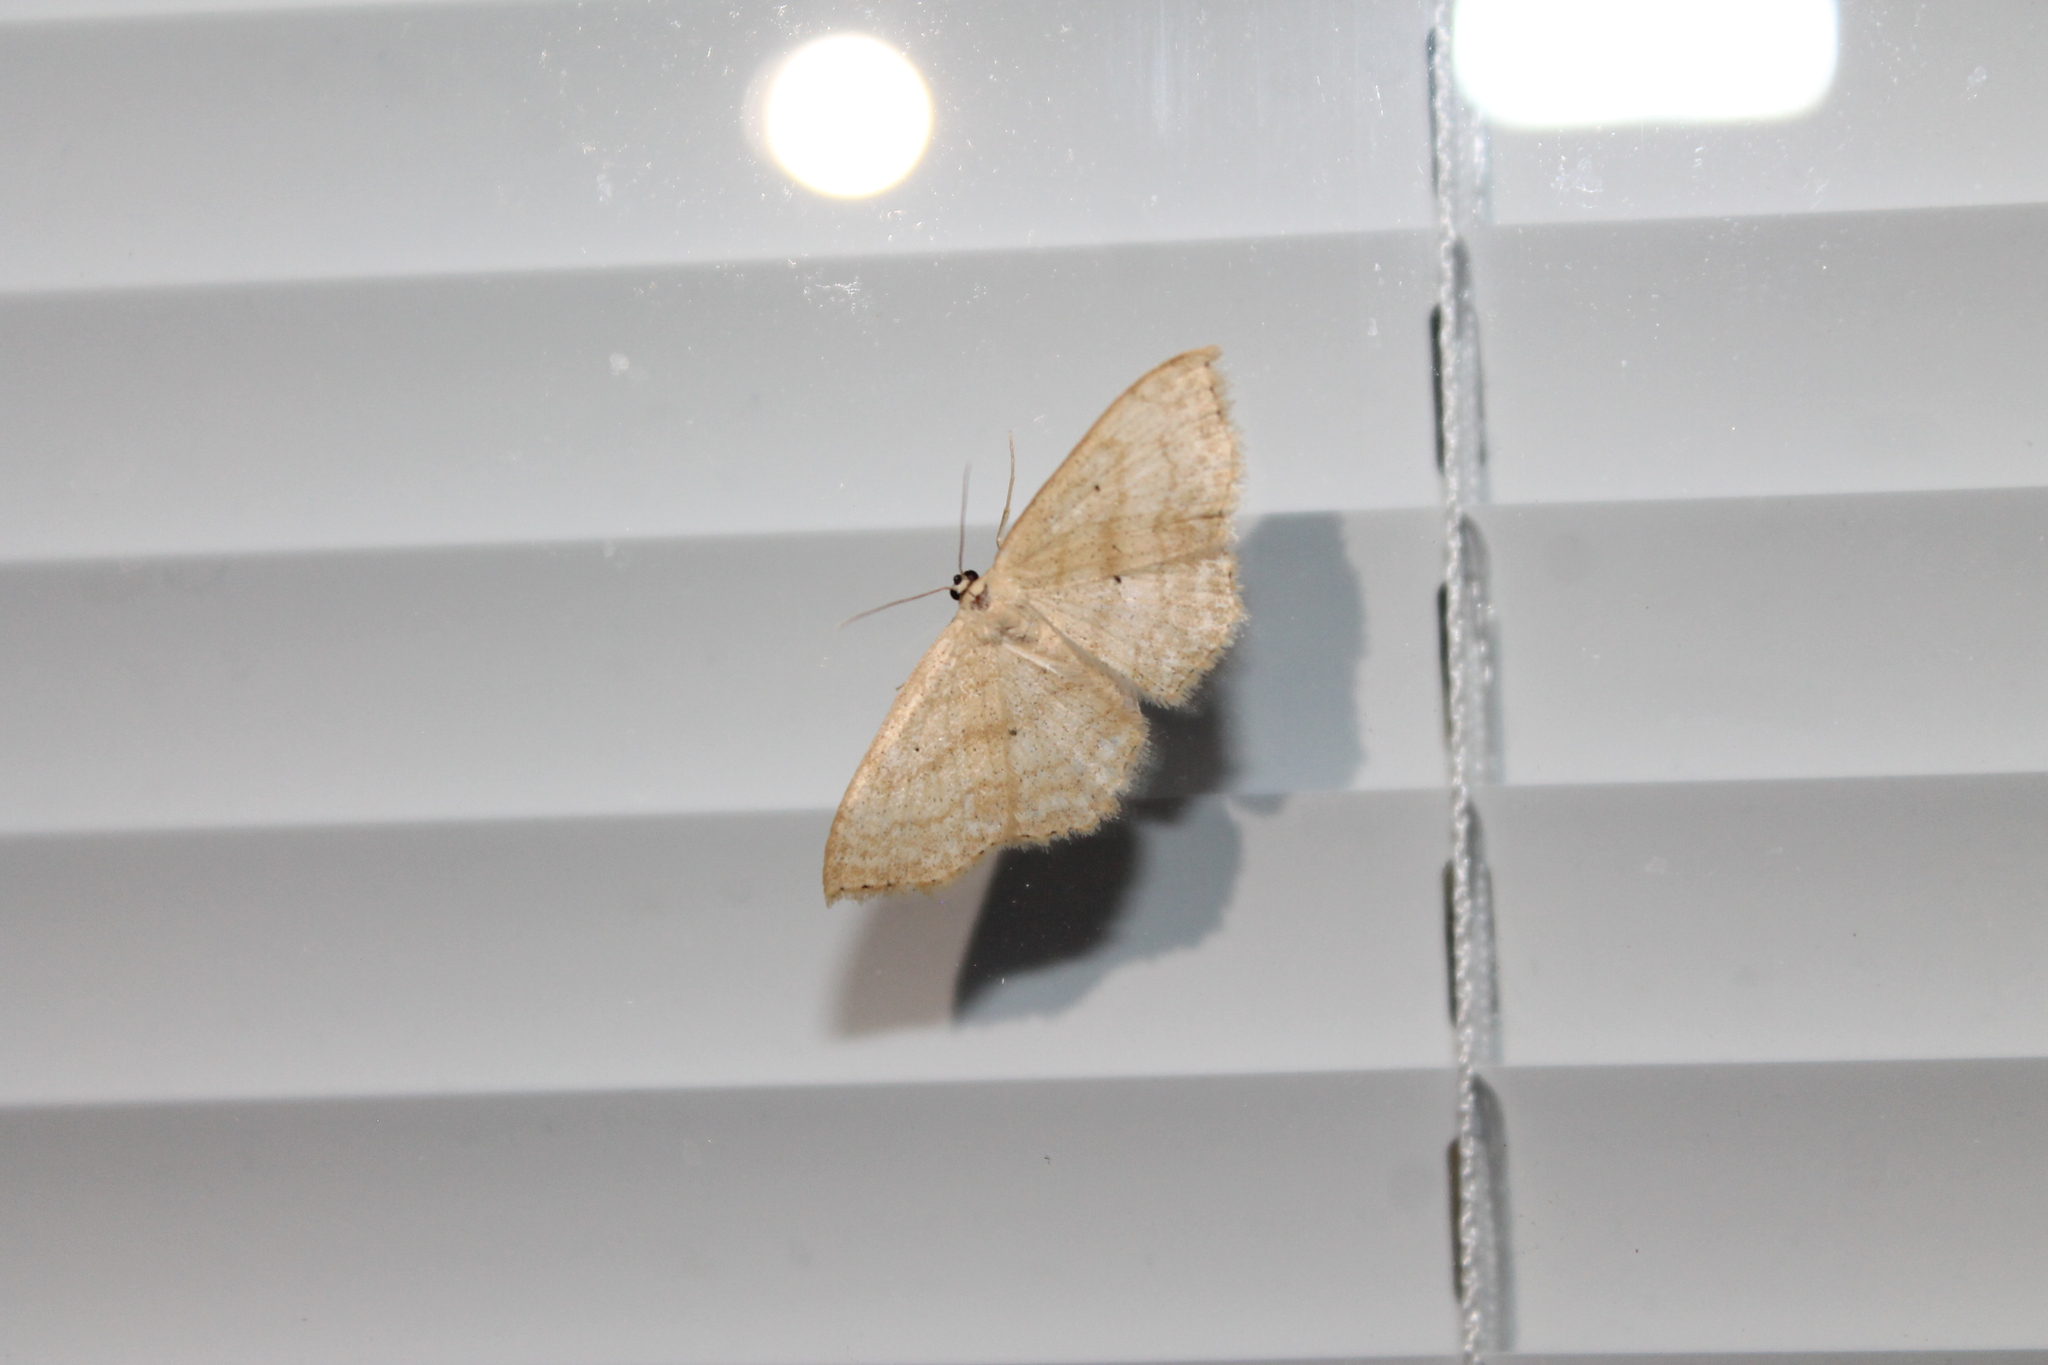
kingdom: Animalia
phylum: Arthropoda
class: Insecta
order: Lepidoptera
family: Geometridae
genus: Scopula
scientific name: Scopula limboundata
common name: Large lace border
